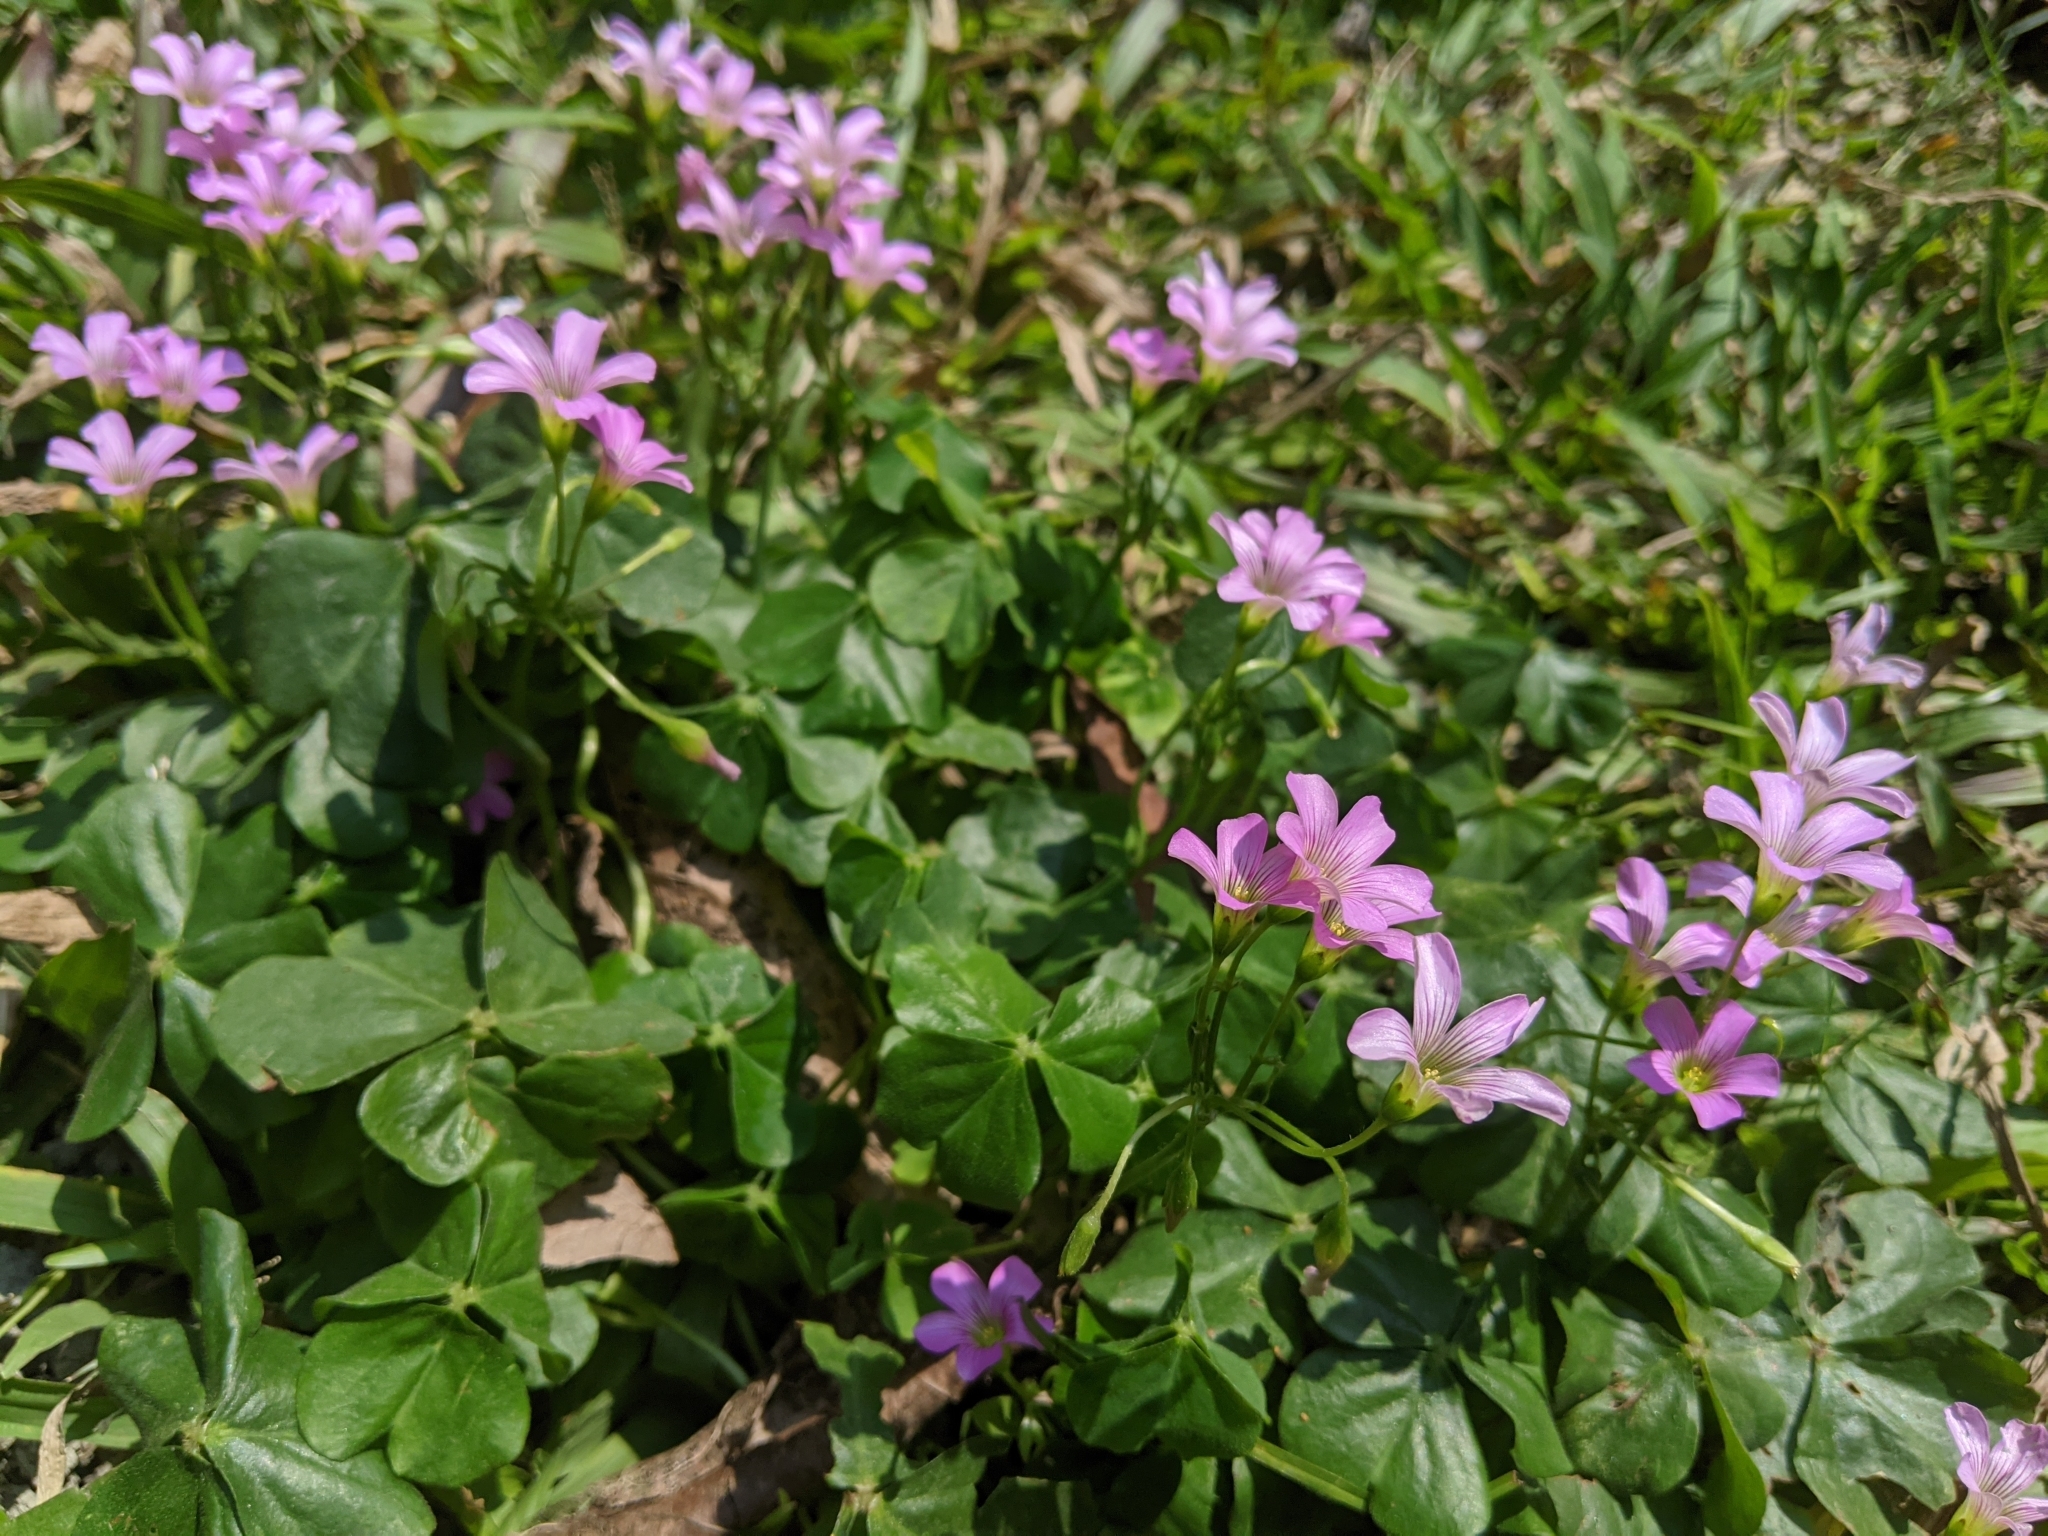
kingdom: Plantae
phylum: Tracheophyta
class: Magnoliopsida
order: Oxalidales
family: Oxalidaceae
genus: Oxalis
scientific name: Oxalis debilis
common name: Large-flowered pink-sorrel
